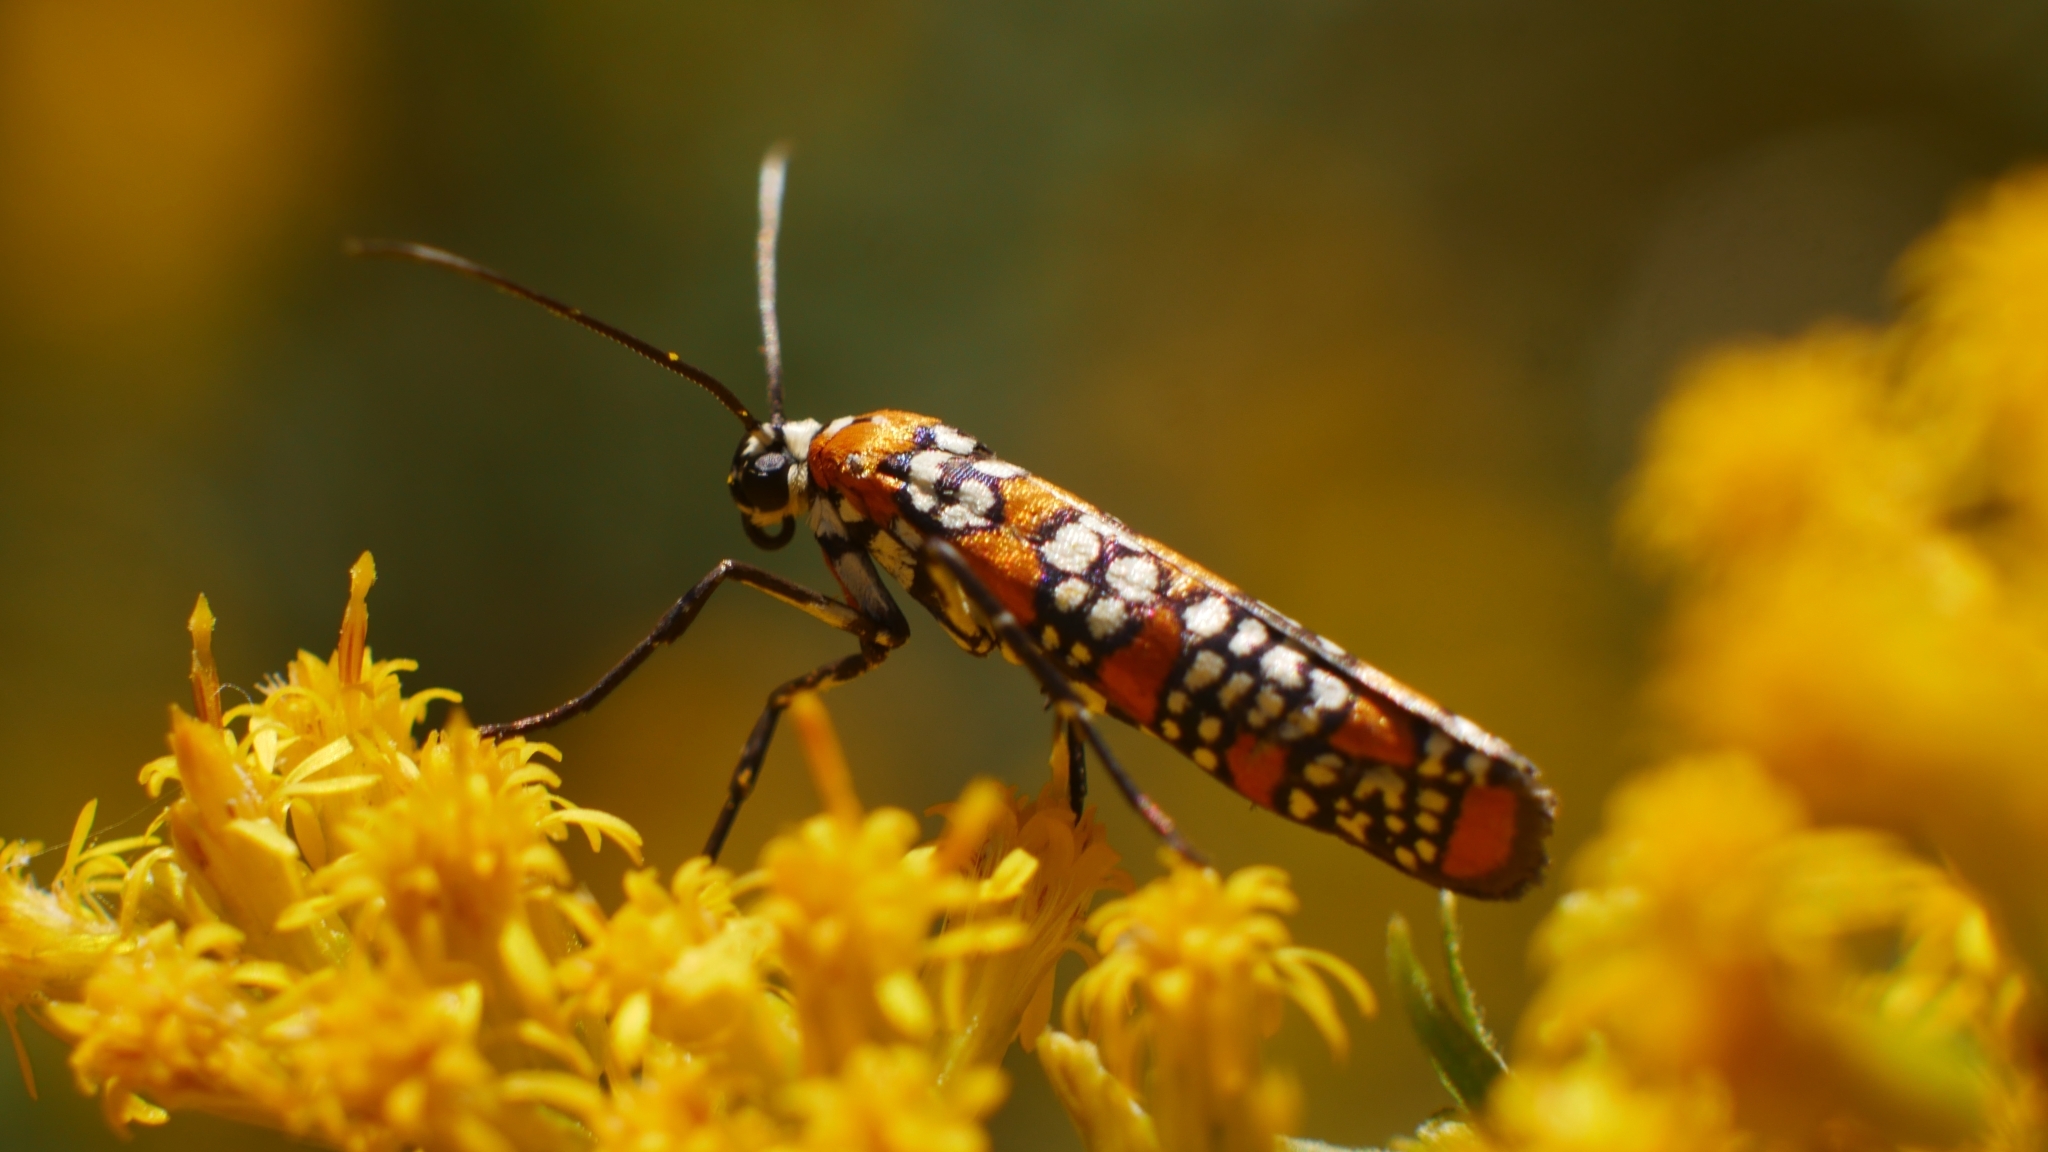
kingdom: Animalia
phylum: Arthropoda
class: Insecta
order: Lepidoptera
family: Attevidae
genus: Atteva
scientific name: Atteva punctella
